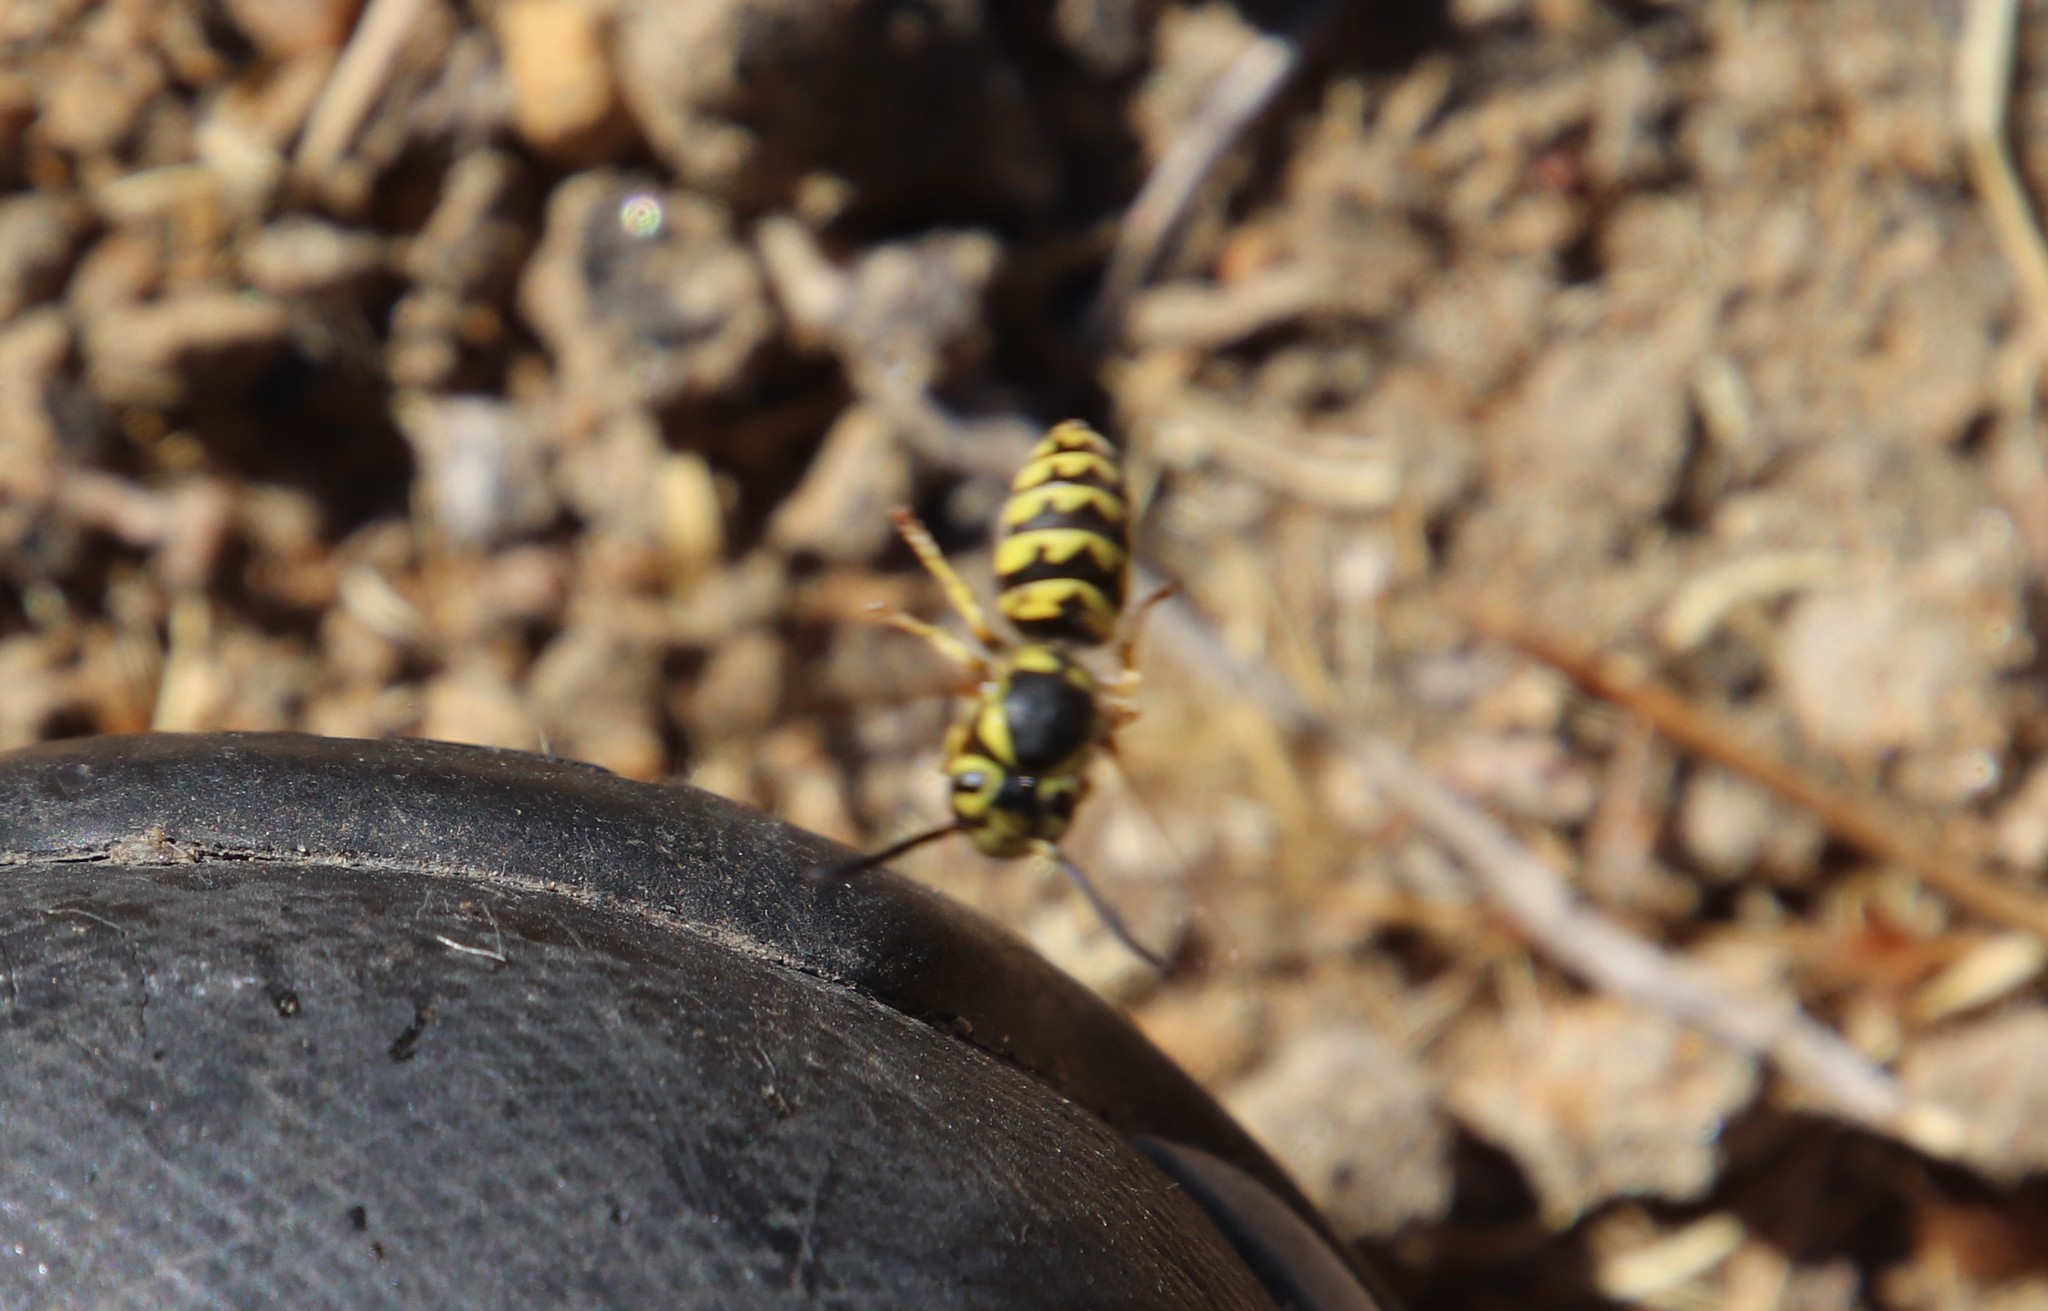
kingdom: Animalia
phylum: Arthropoda
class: Insecta
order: Hymenoptera
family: Vespidae
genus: Vespula
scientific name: Vespula pensylvanica
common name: Western yellowjacket
